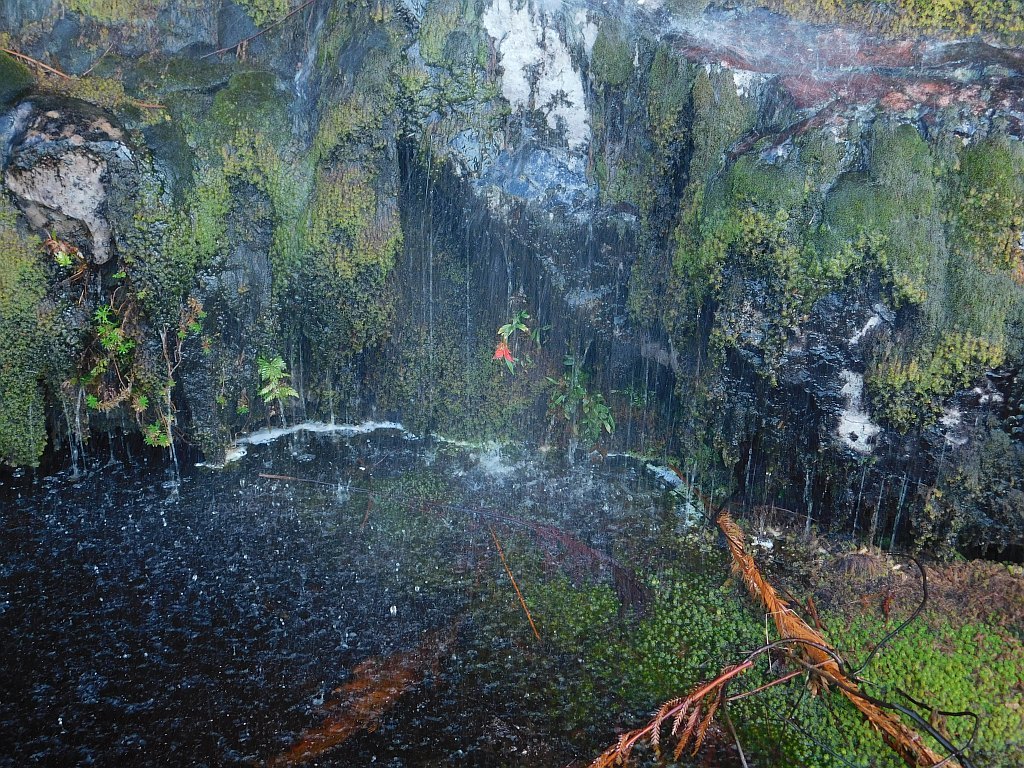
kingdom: Plantae
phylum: Tracheophyta
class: Liliopsida
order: Asparagales
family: Orchidaceae
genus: Disa
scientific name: Disa uniflora
